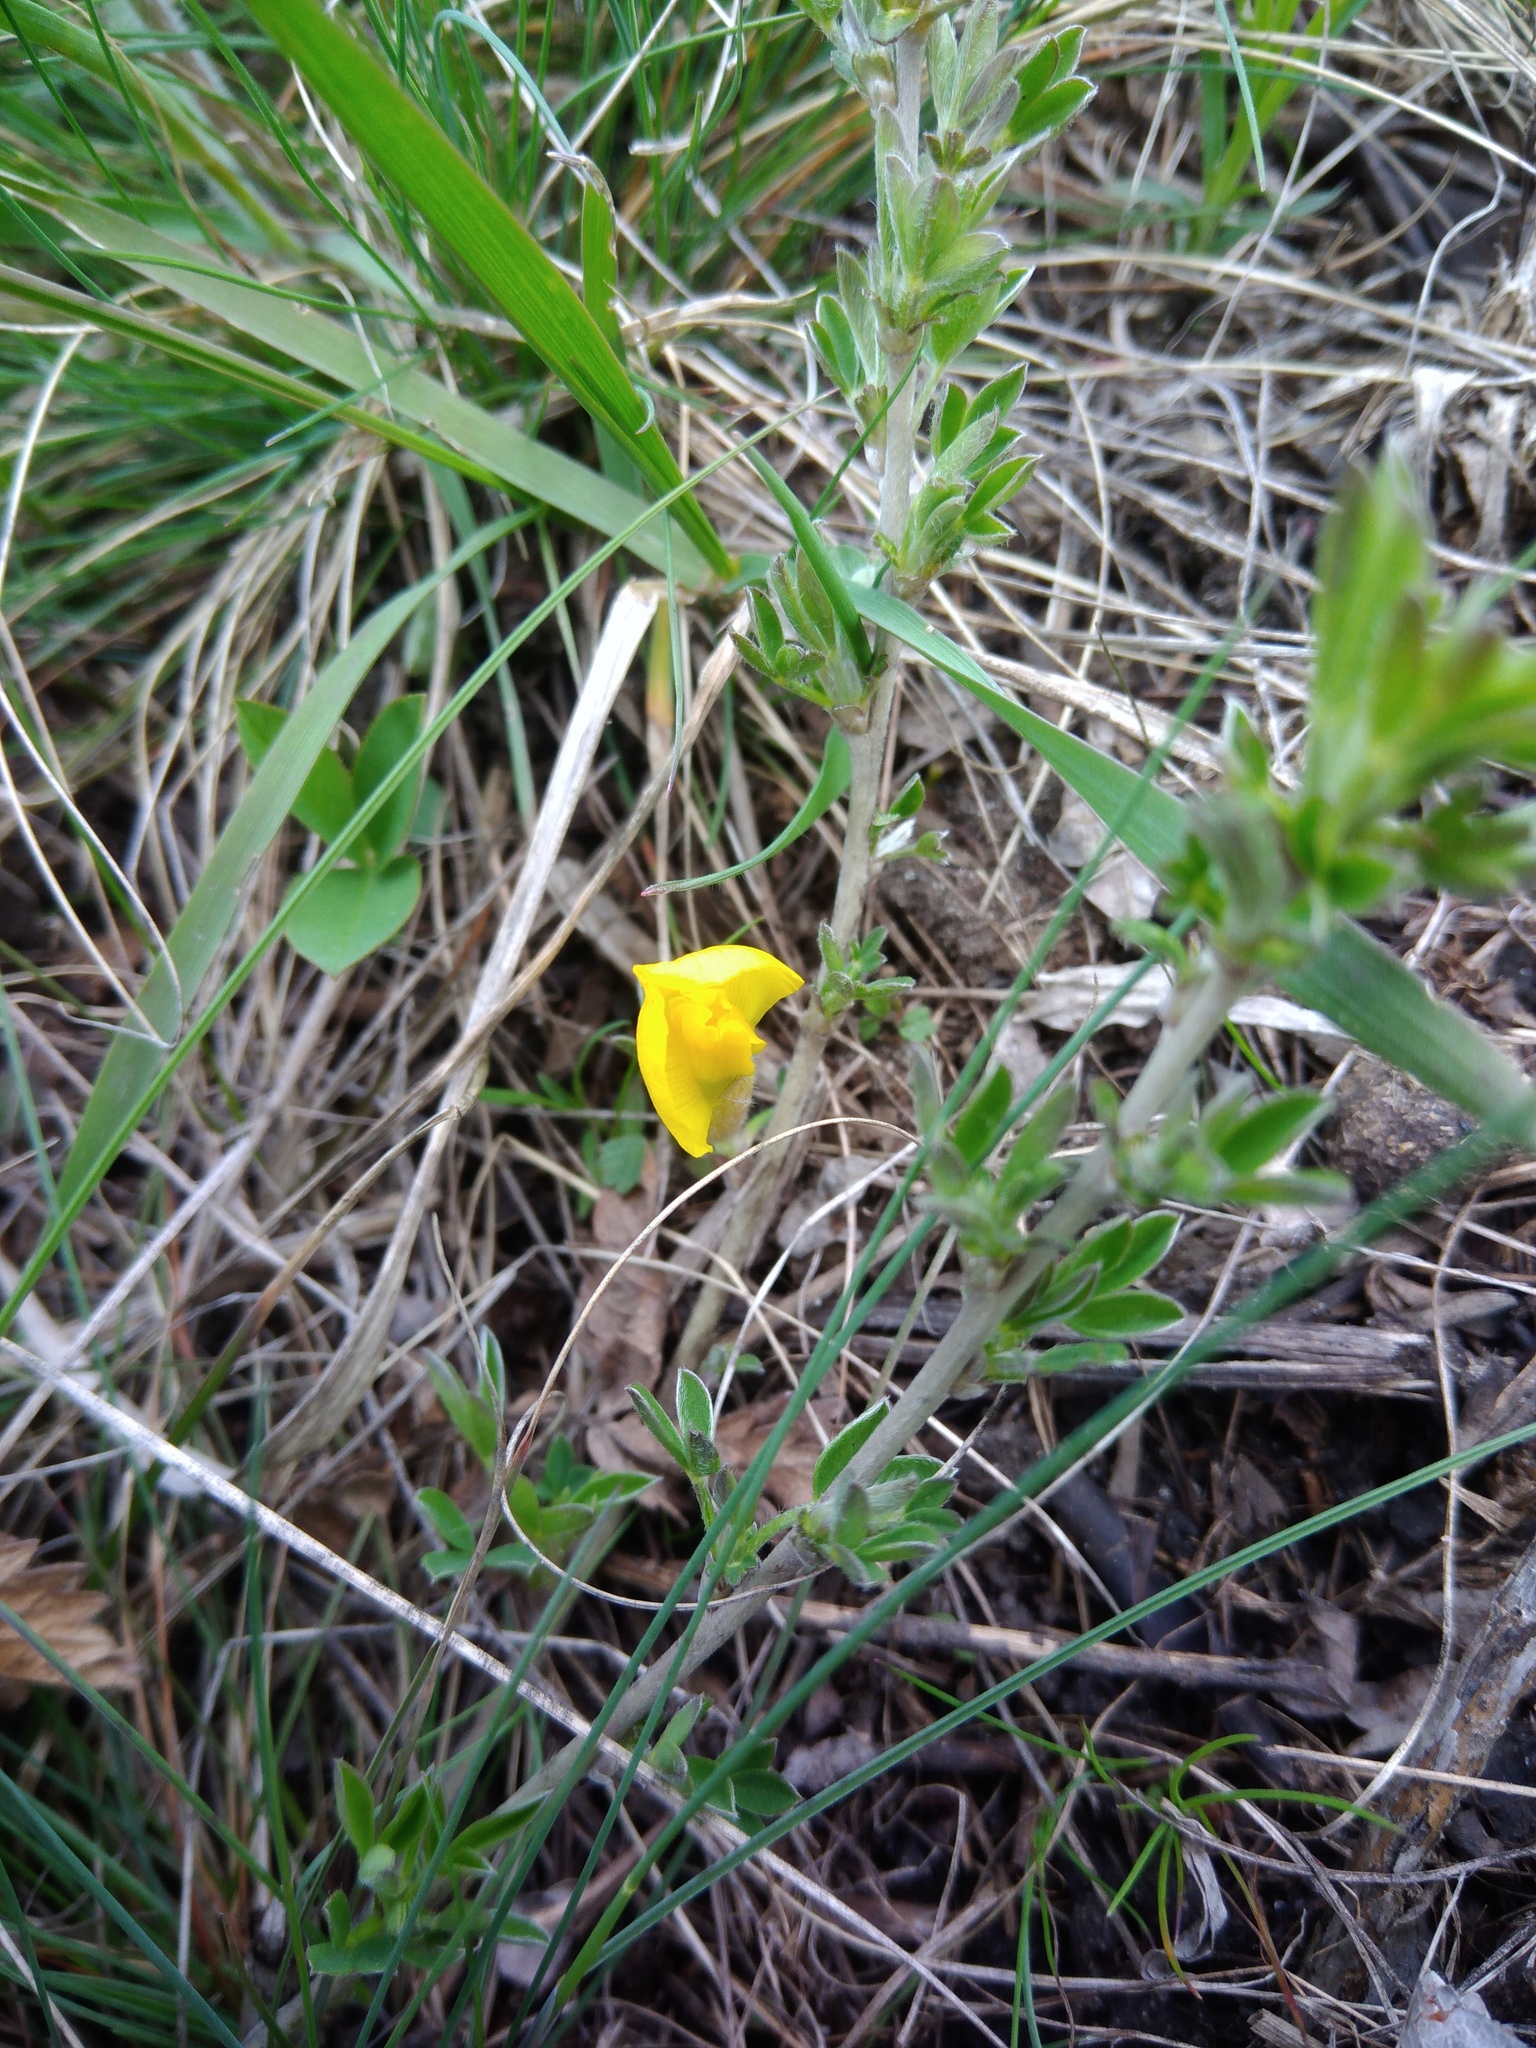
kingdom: Plantae
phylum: Tracheophyta
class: Magnoliopsida
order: Fabales
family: Fabaceae
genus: Chamaecytisus
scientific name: Chamaecytisus ruthenicus
